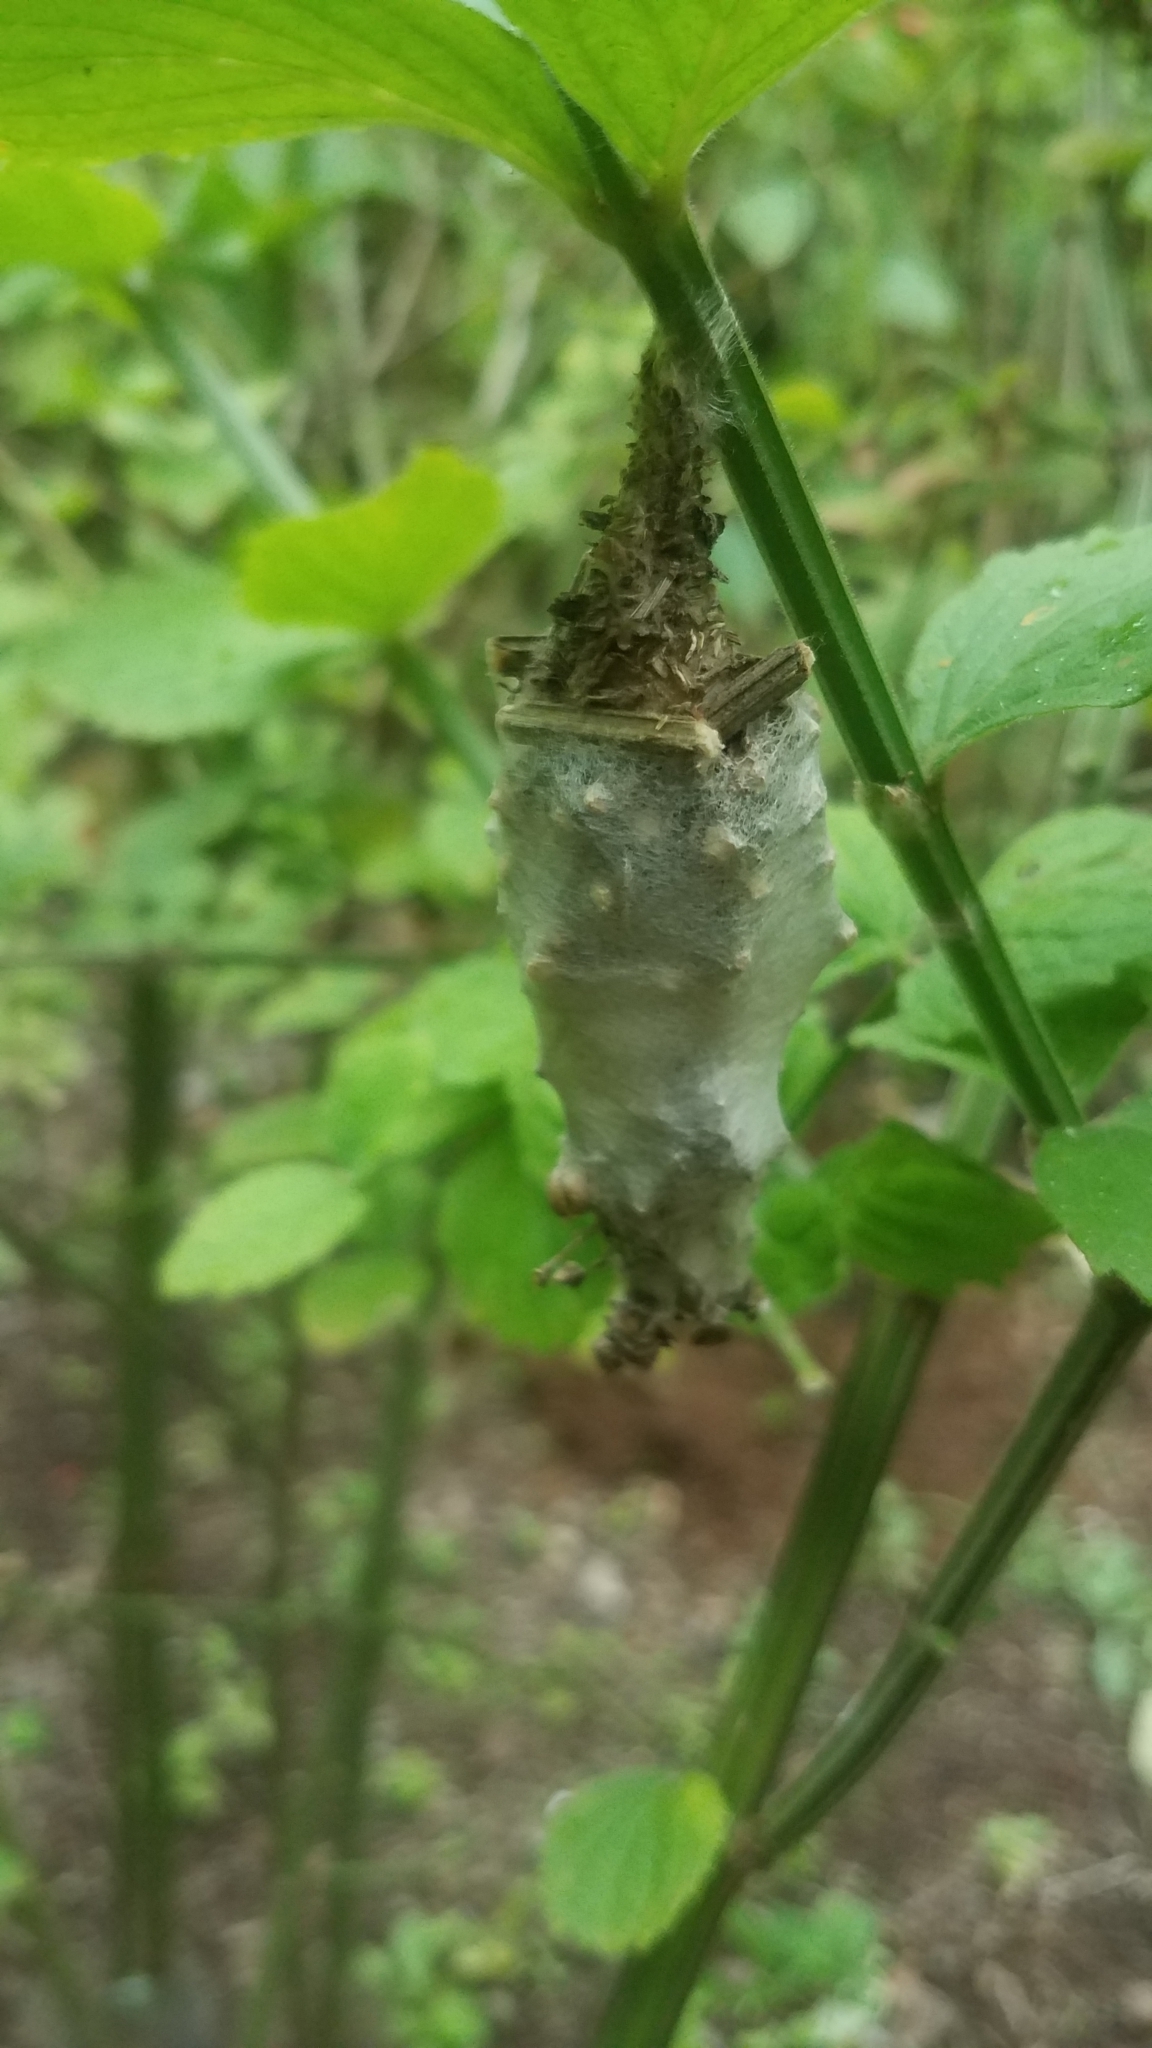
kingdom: Animalia
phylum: Arthropoda
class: Insecta
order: Lepidoptera
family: Psychidae
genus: Oiketicus
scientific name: Oiketicus kirbyi
